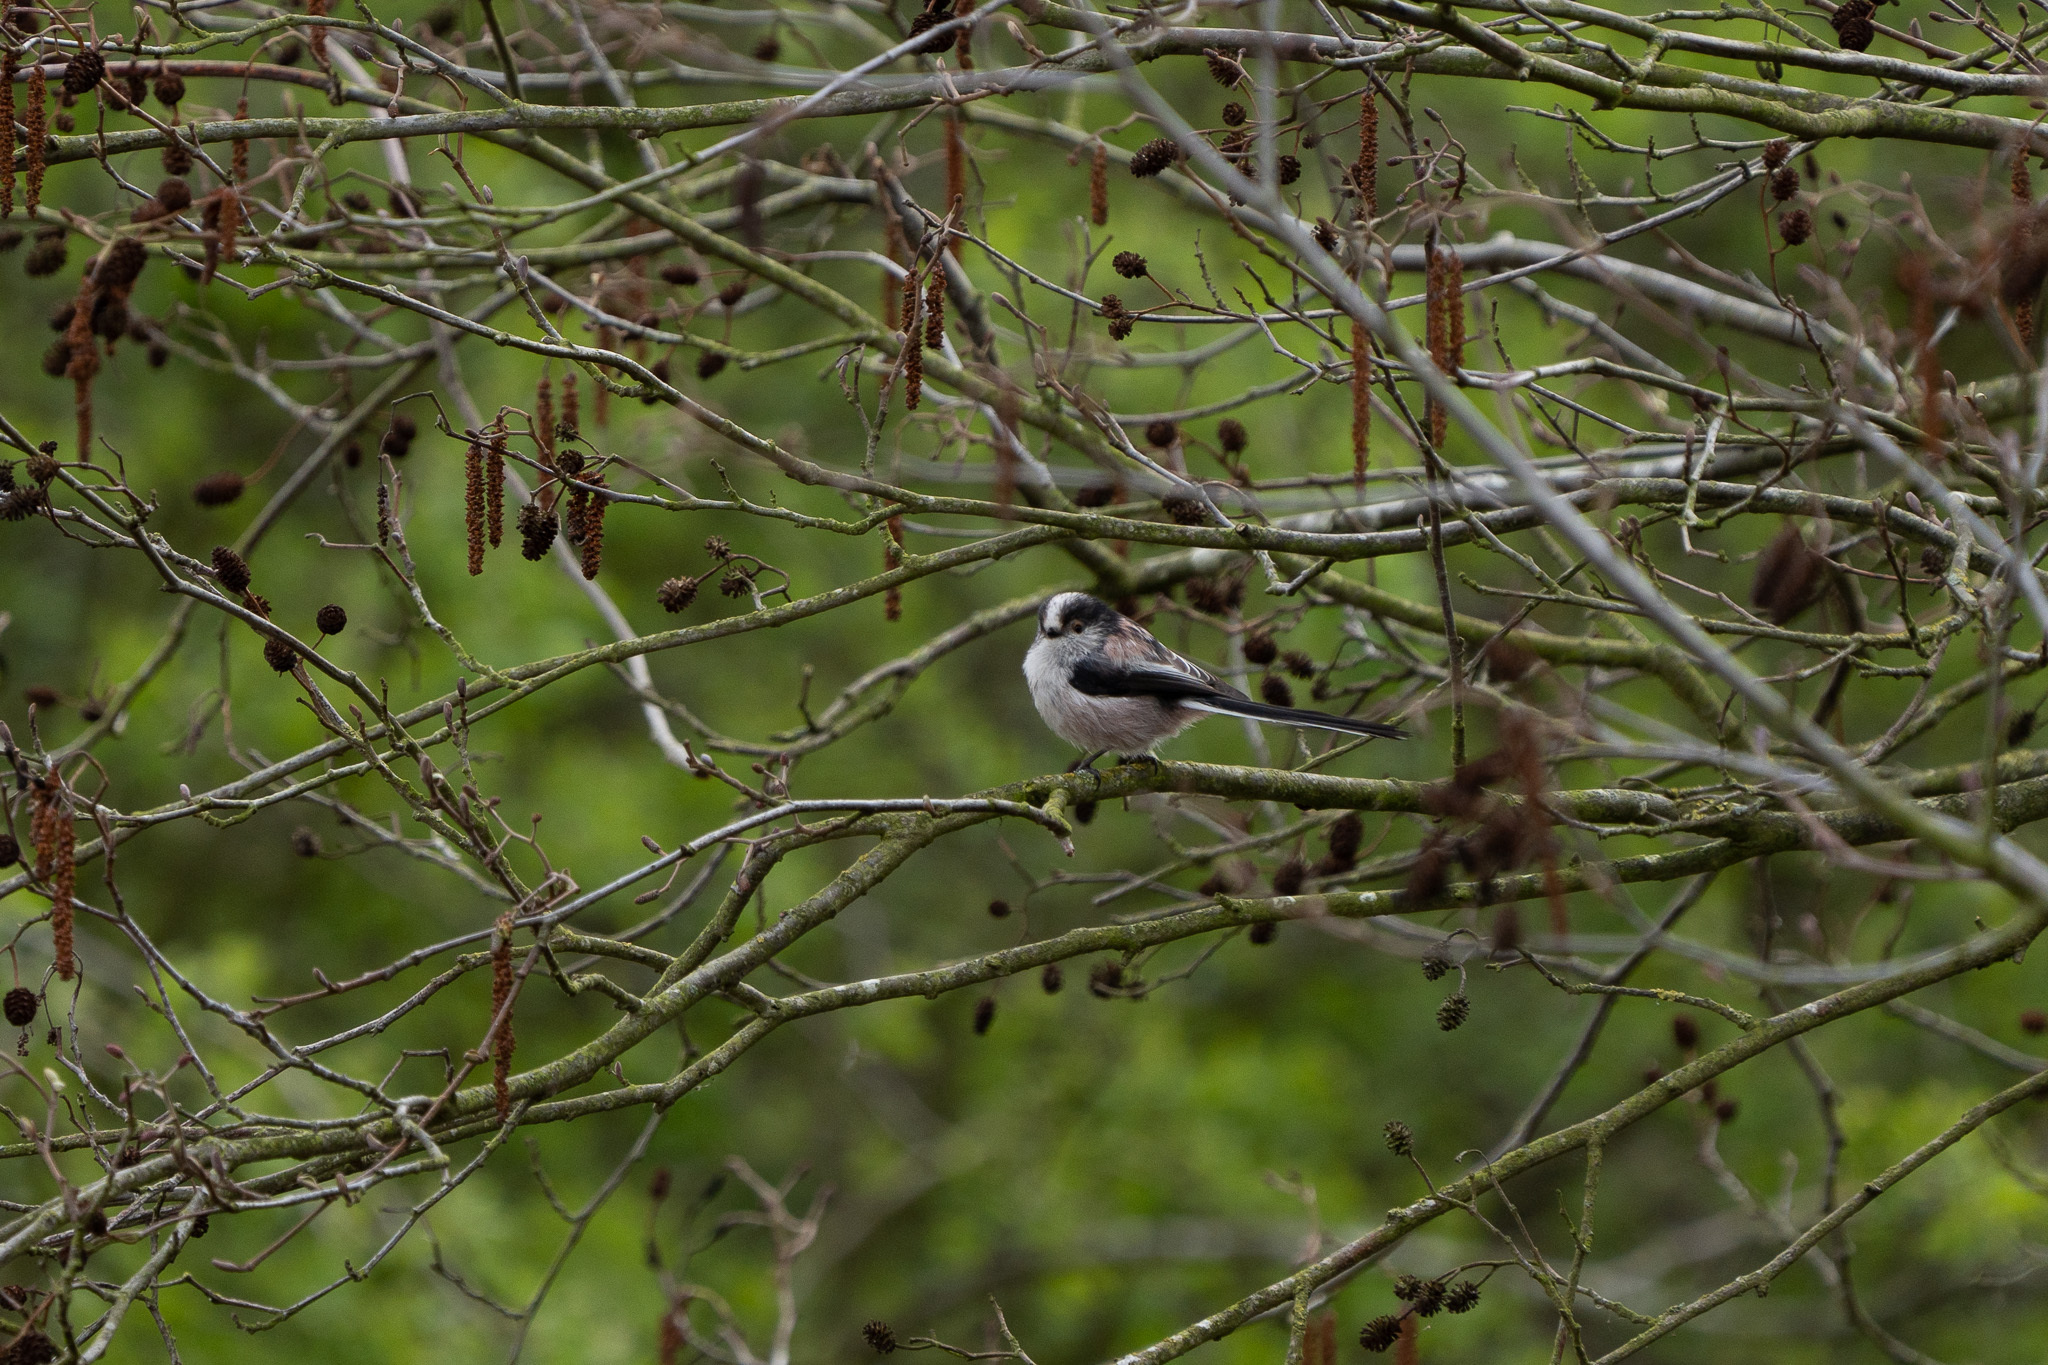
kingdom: Animalia
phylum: Chordata
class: Aves
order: Passeriformes
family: Aegithalidae
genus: Aegithalos
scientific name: Aegithalos caudatus
